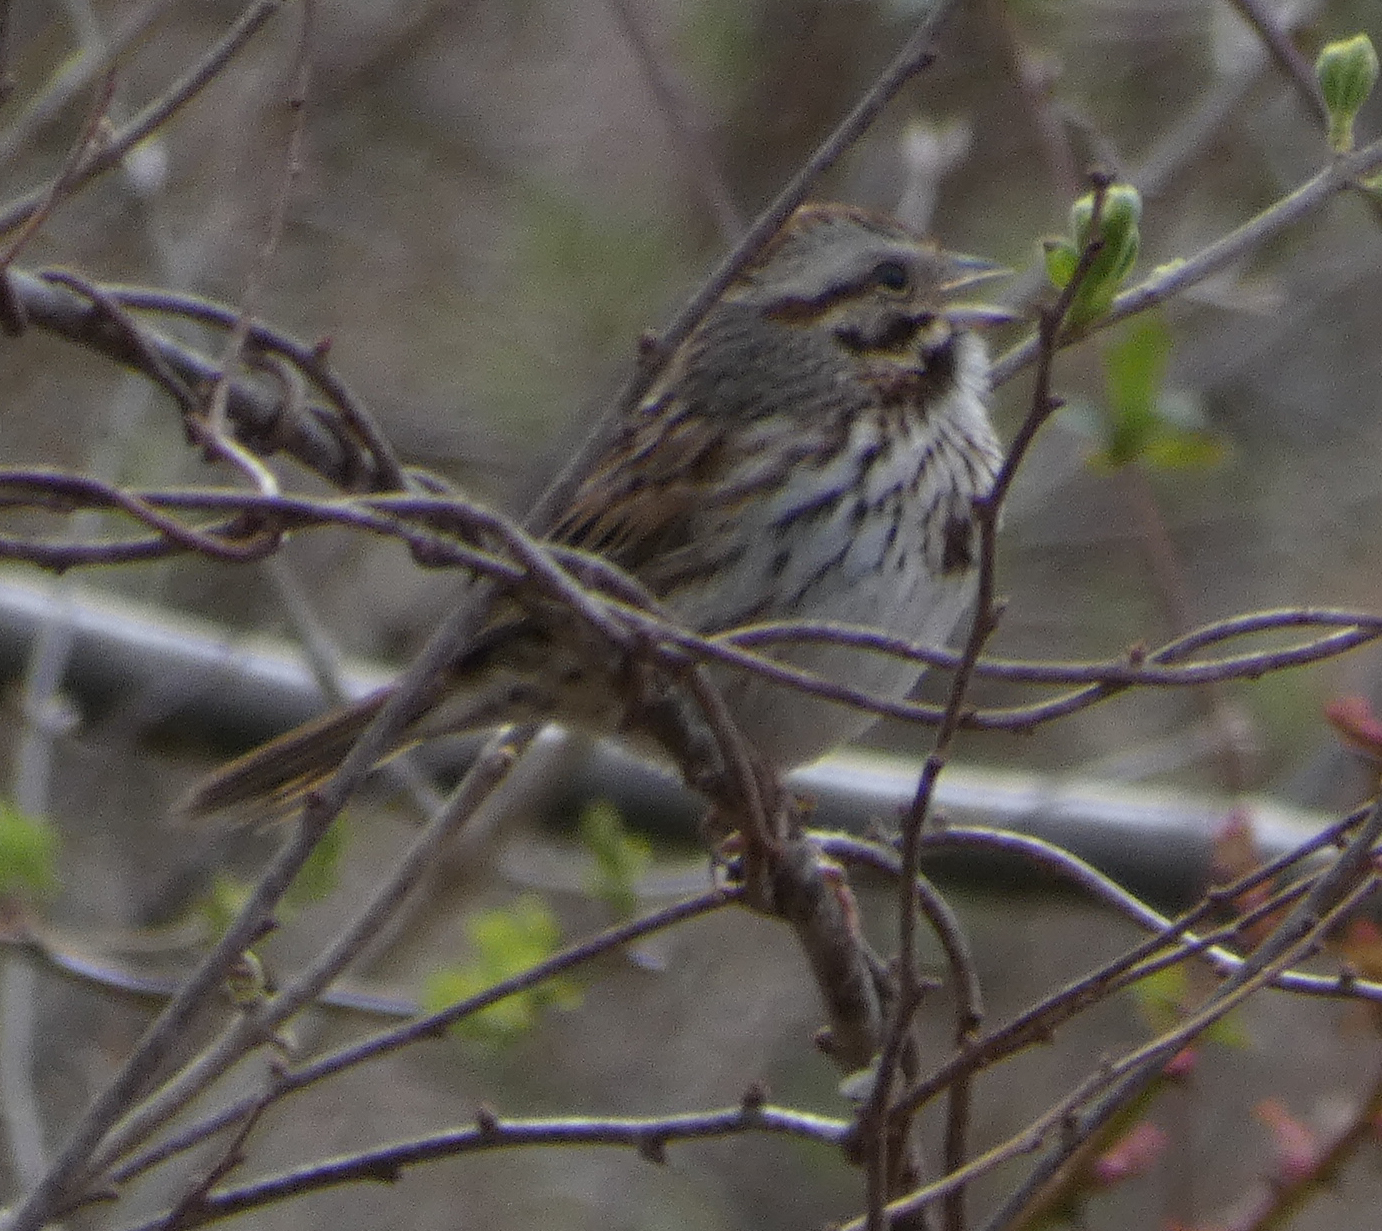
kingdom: Animalia
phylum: Chordata
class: Aves
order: Passeriformes
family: Passerellidae
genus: Melospiza
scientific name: Melospiza melodia
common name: Song sparrow
